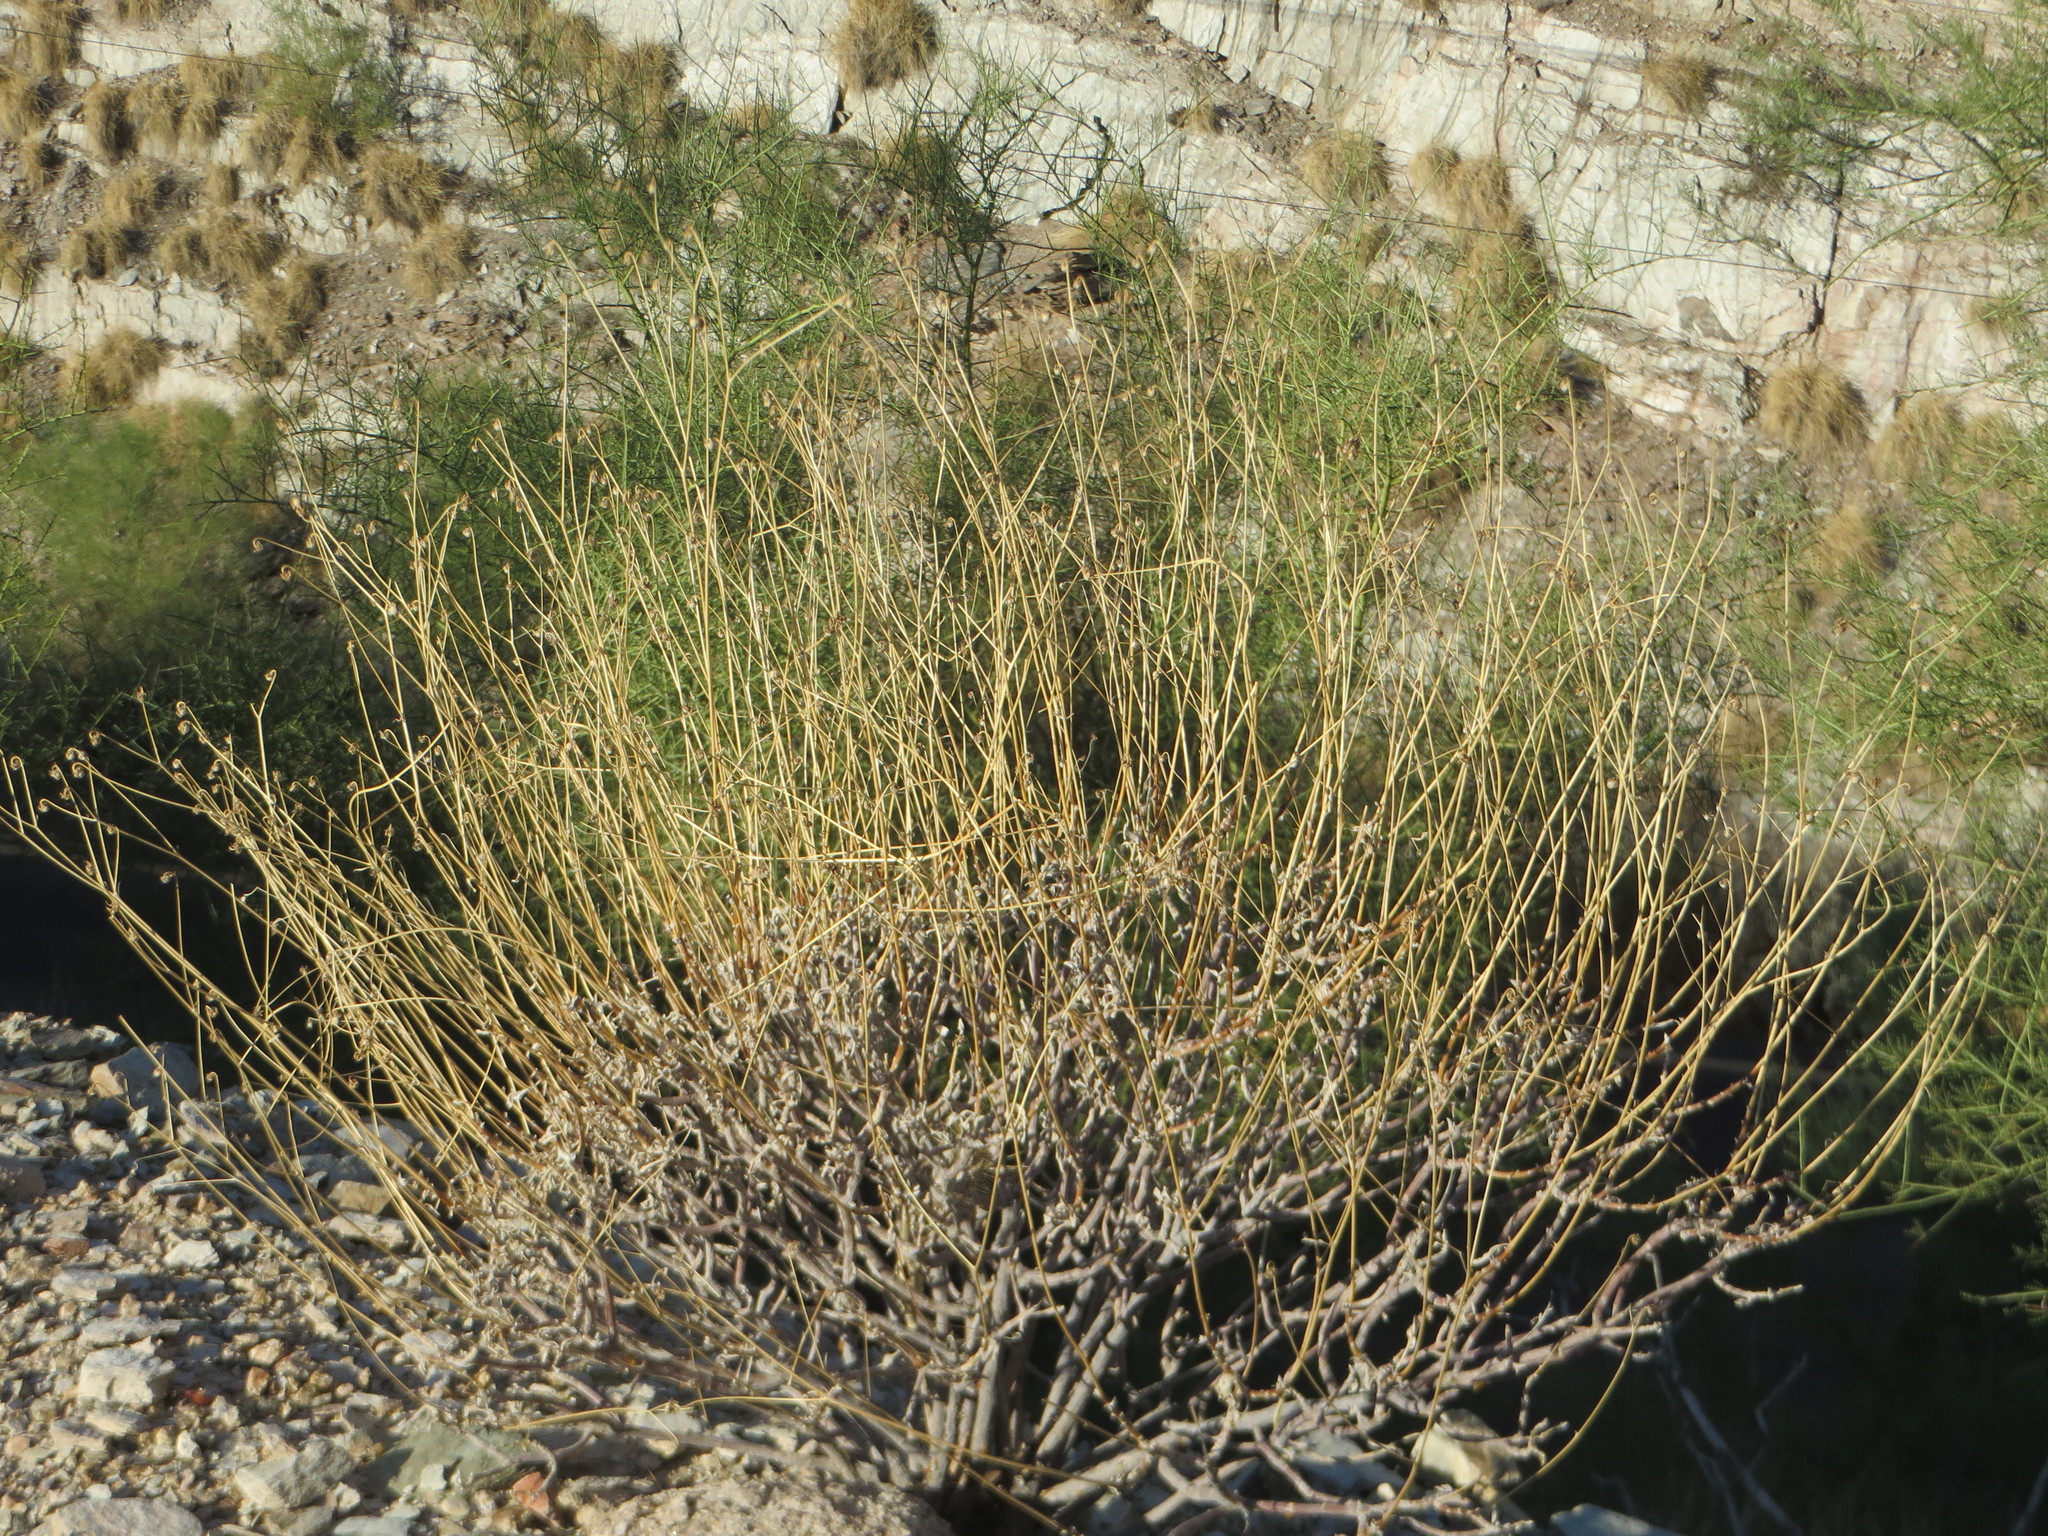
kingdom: Plantae
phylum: Tracheophyta
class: Magnoliopsida
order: Asterales
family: Asteraceae
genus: Encelia
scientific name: Encelia farinosa
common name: Brittlebush
